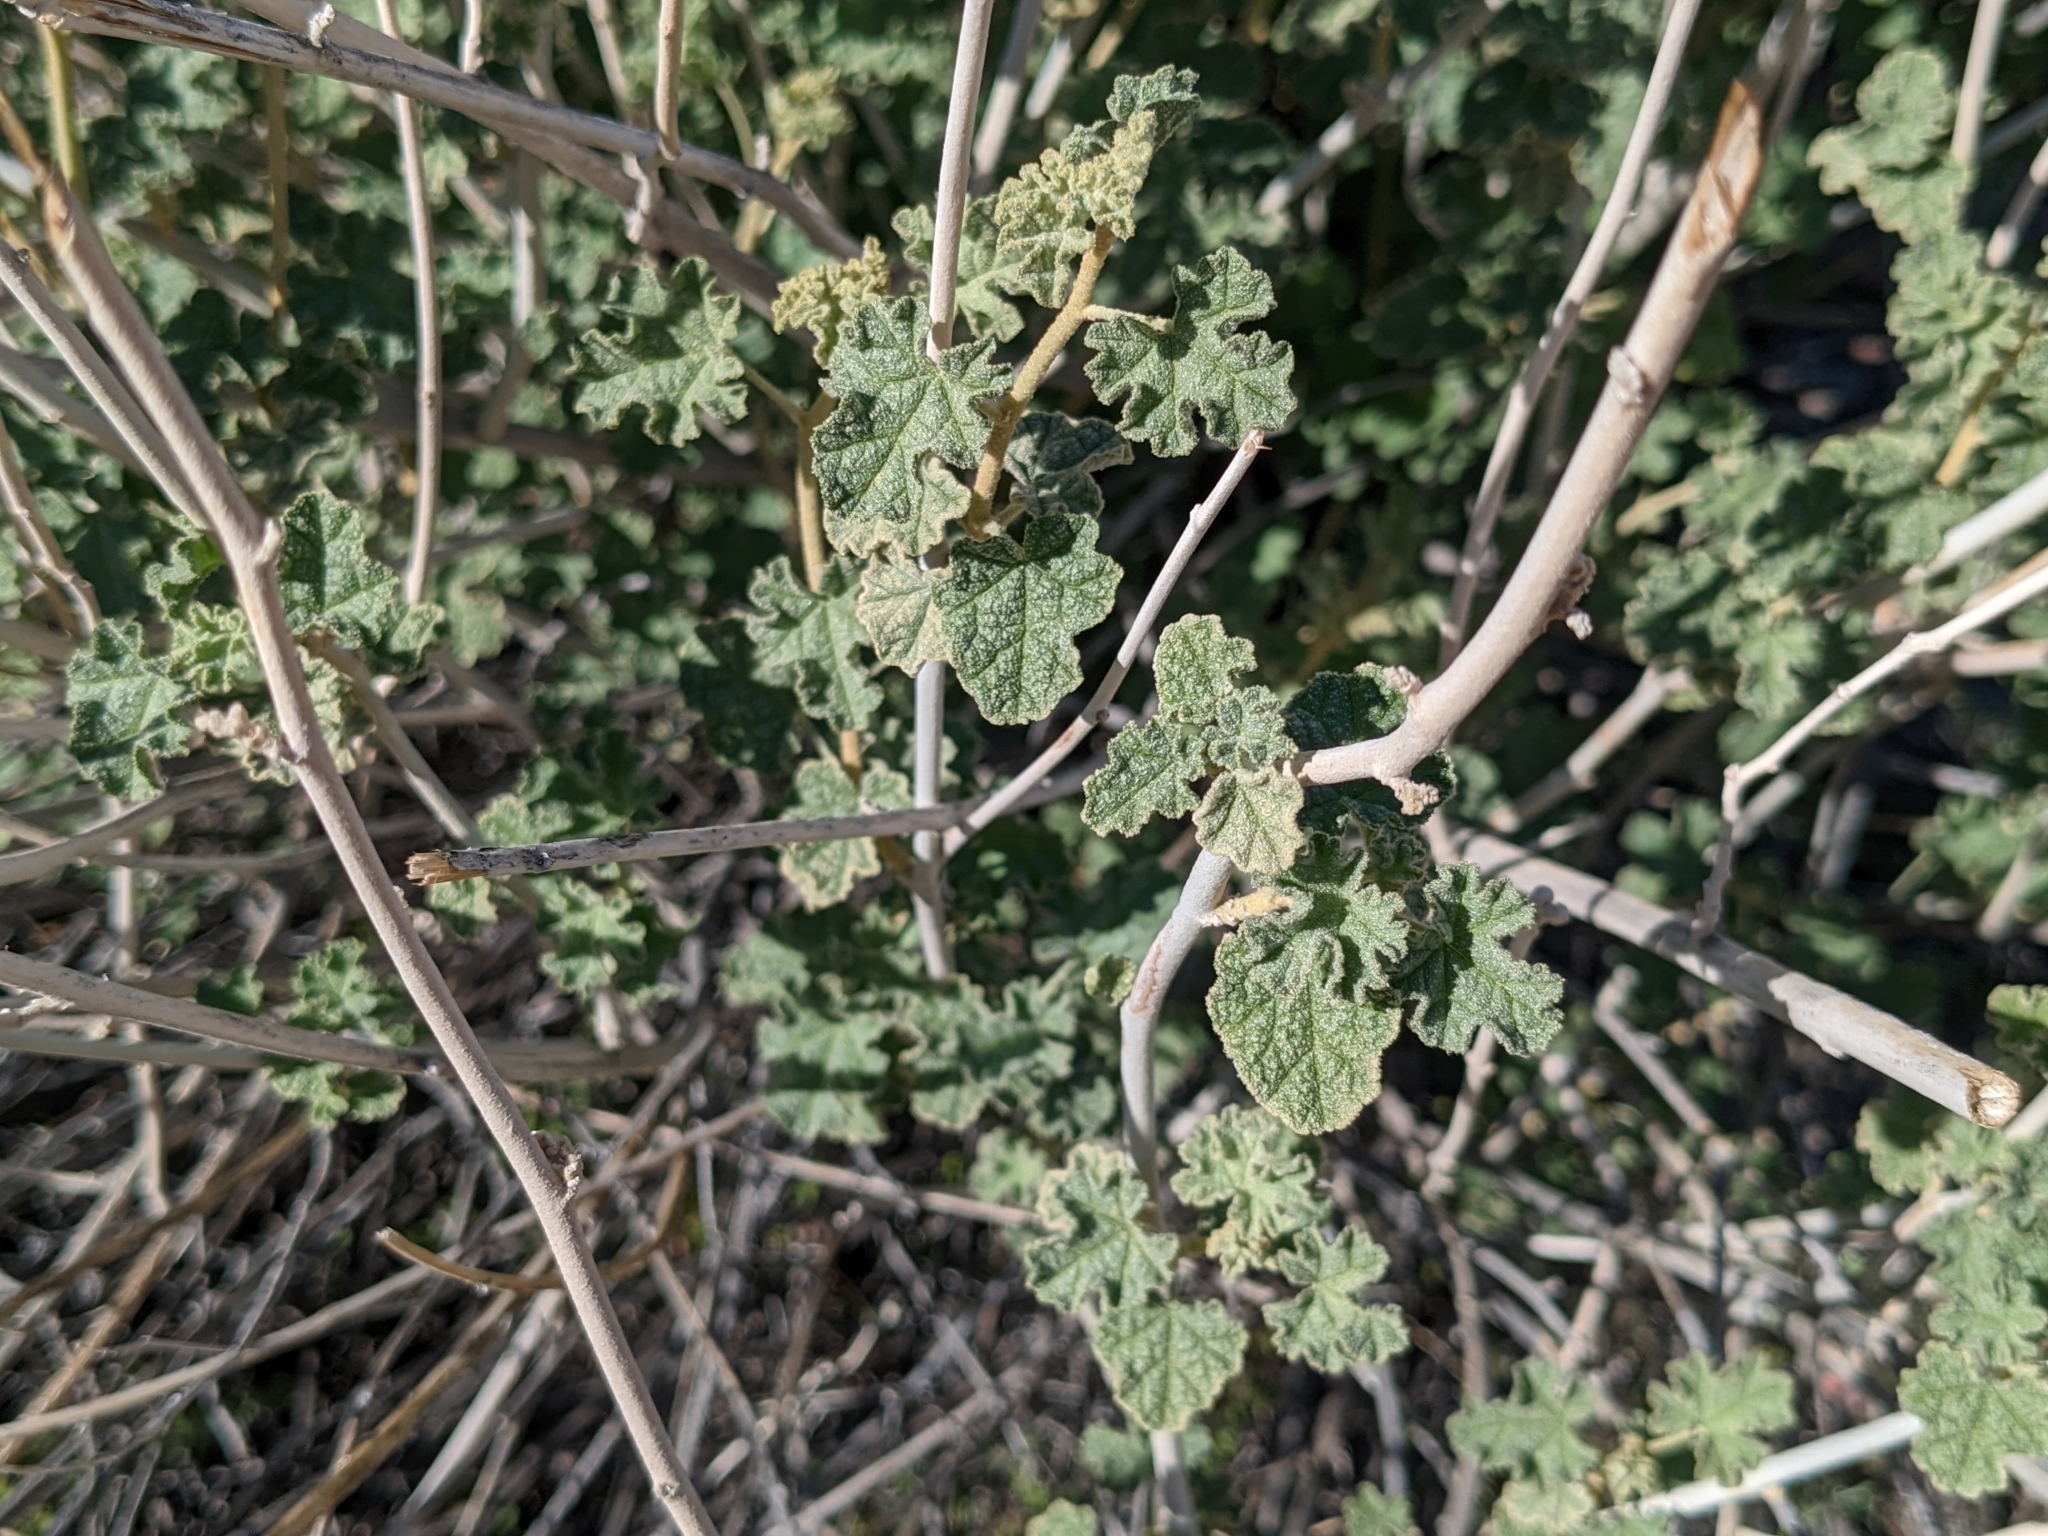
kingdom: Plantae
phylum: Tracheophyta
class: Magnoliopsida
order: Malvales
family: Malvaceae
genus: Sphaeralcea
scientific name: Sphaeralcea ambigua
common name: Apricot globe-mallow
